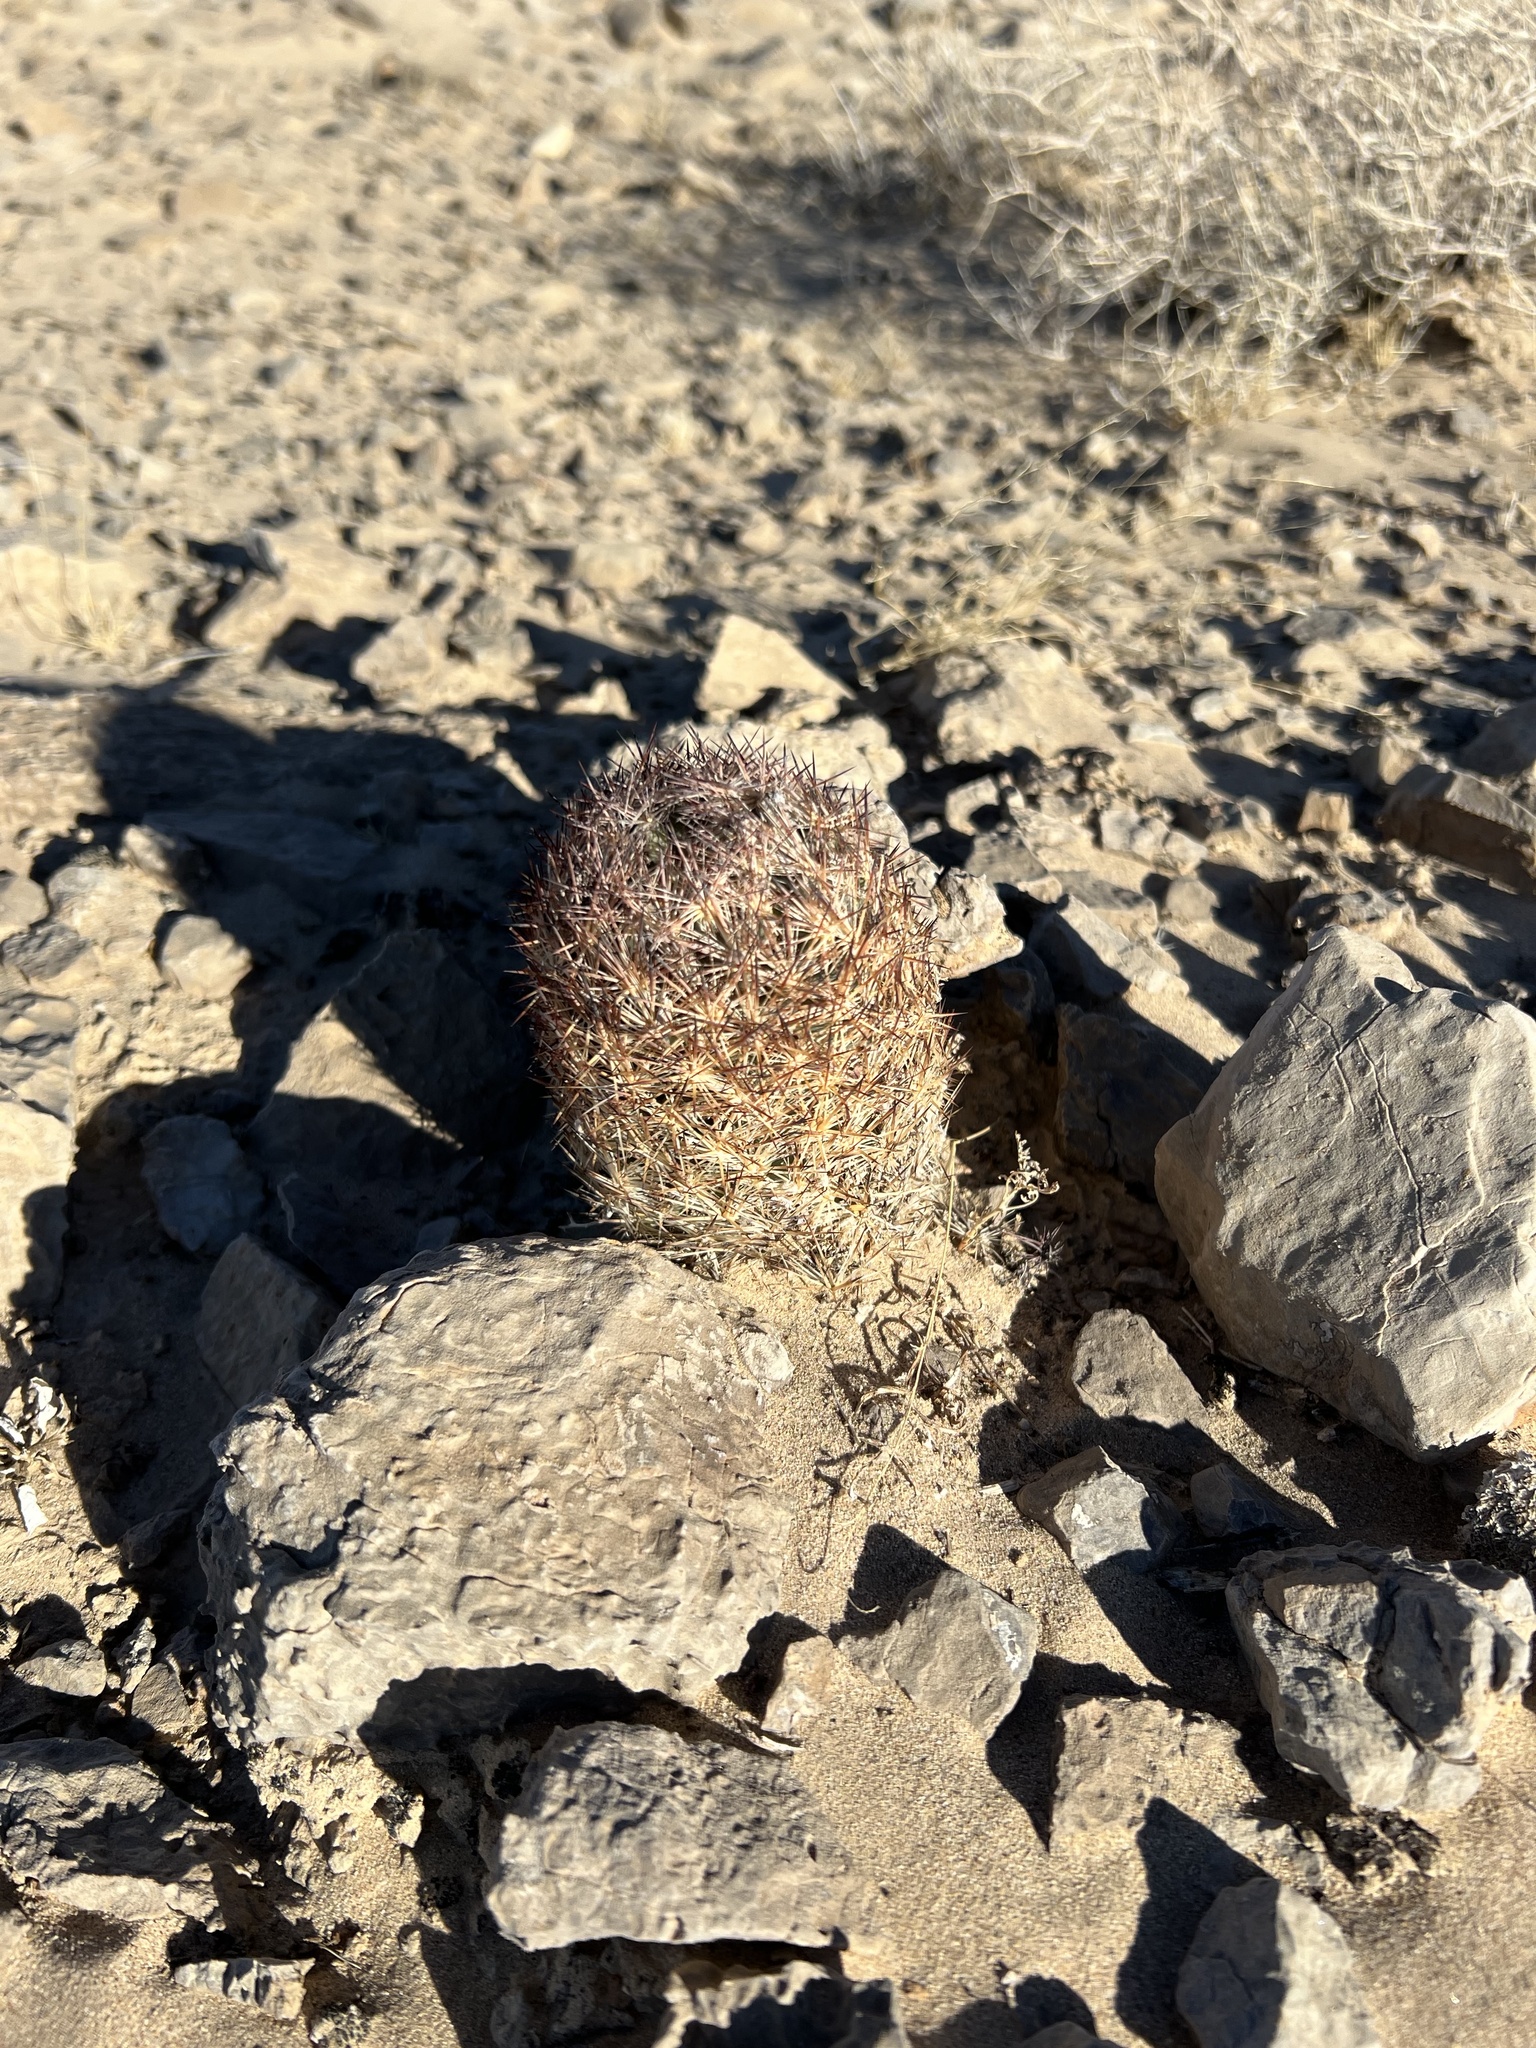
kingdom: Plantae
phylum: Tracheophyta
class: Magnoliopsida
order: Caryophyllales
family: Cactaceae
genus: Pelecyphora
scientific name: Pelecyphora dasyacantha
